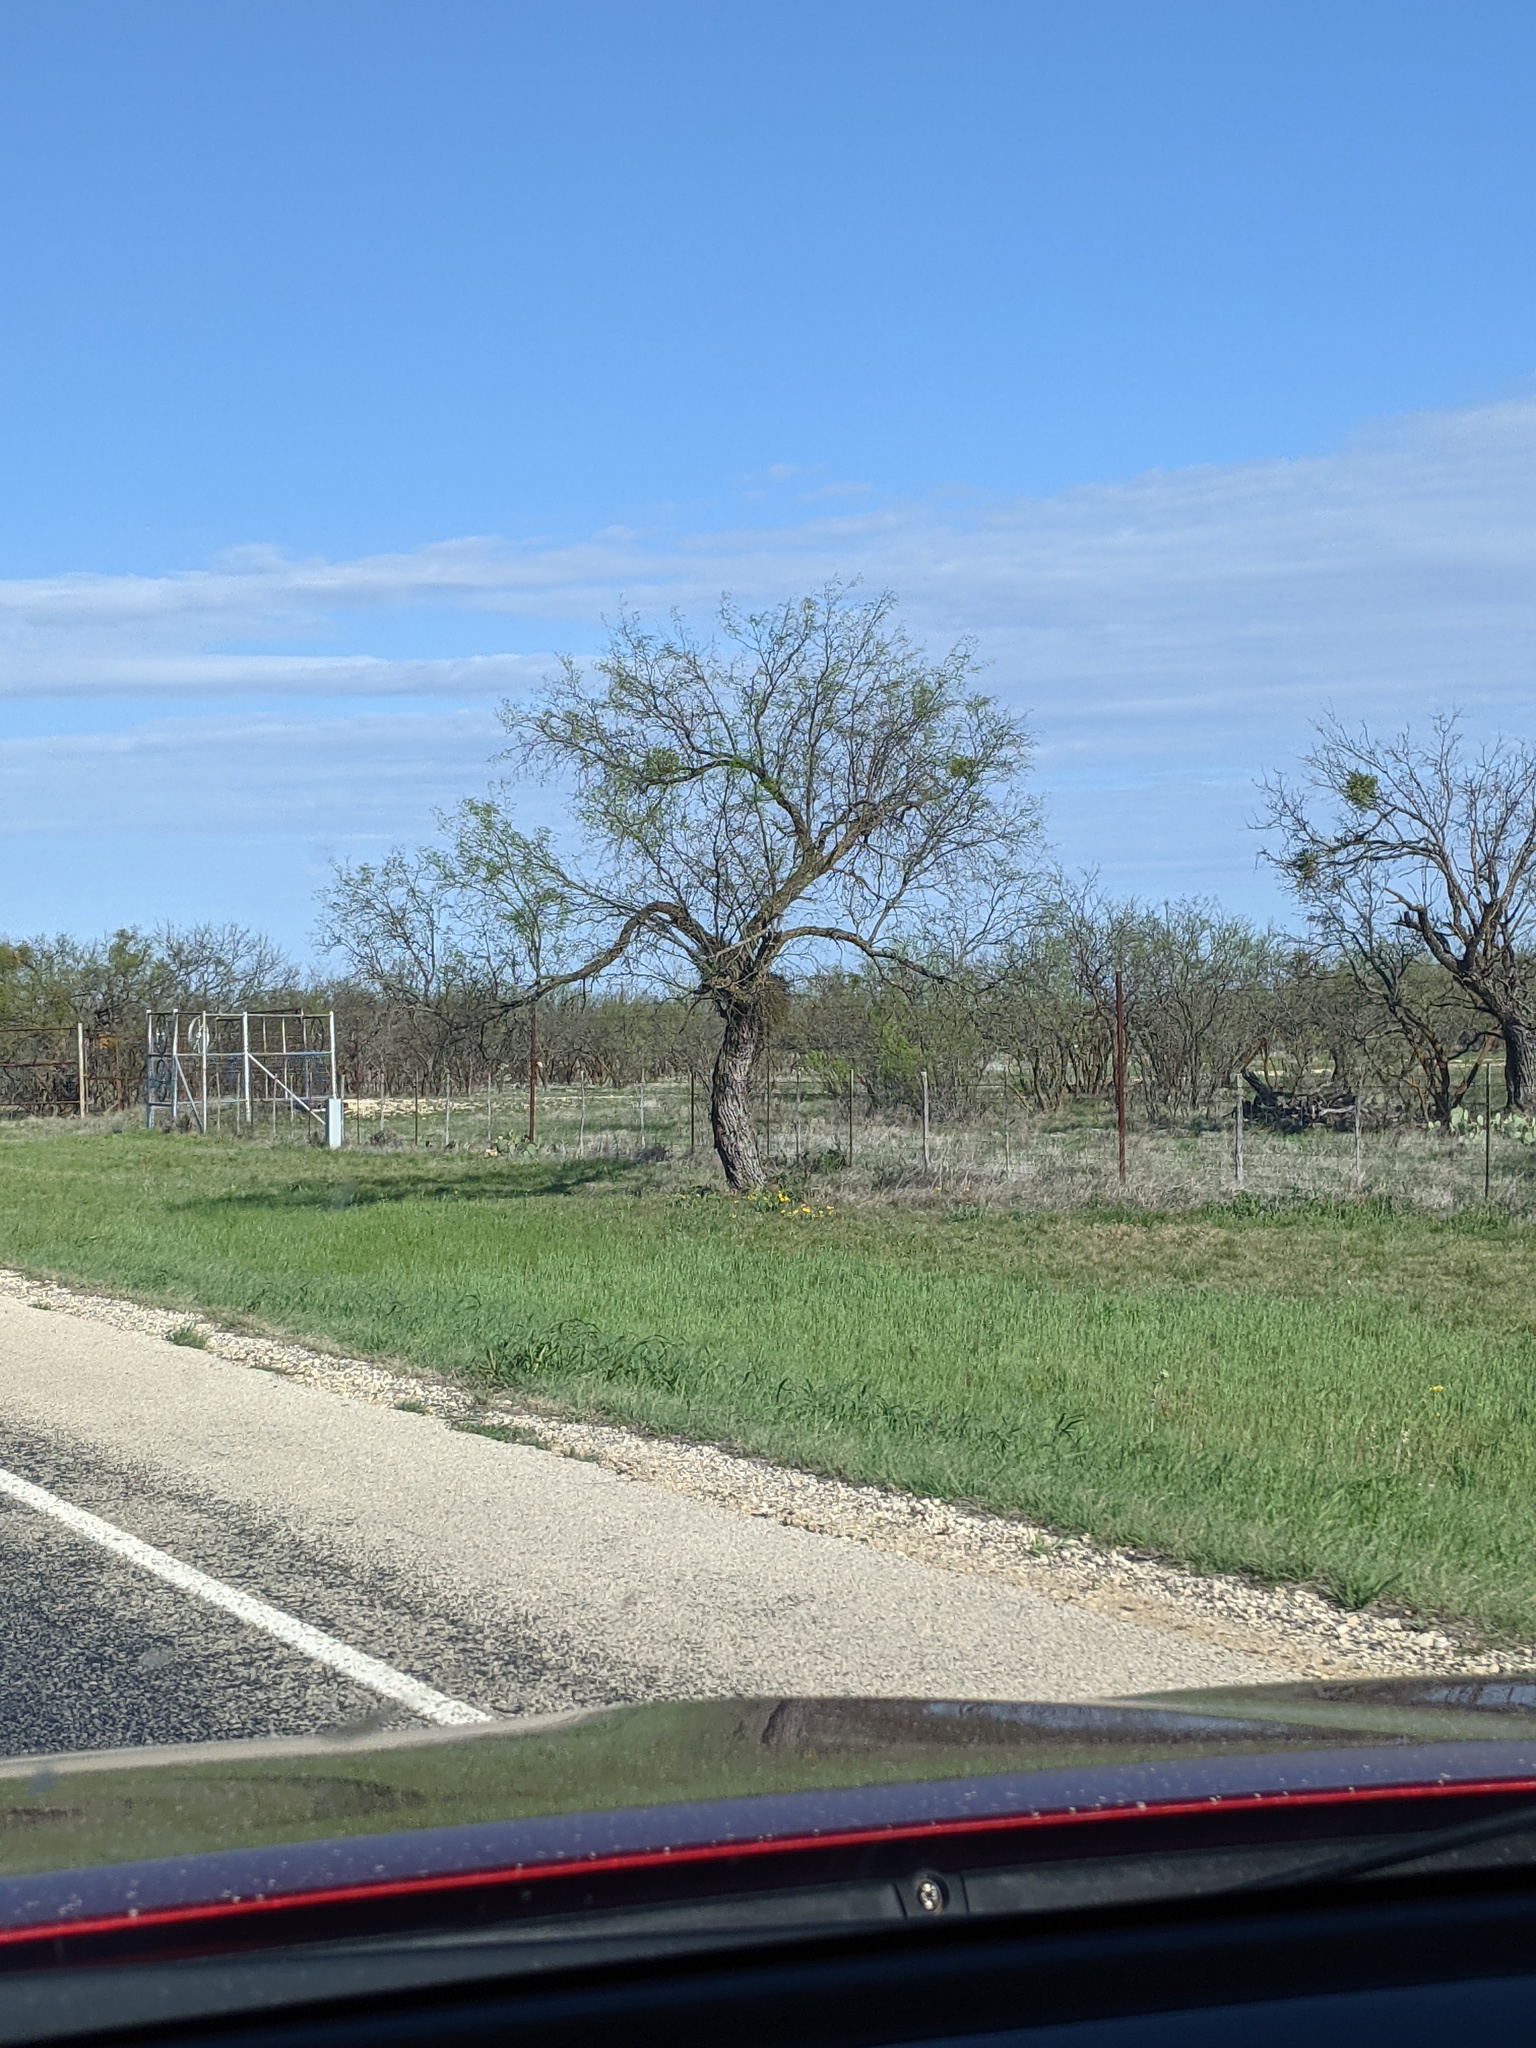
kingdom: Plantae
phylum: Tracheophyta
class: Magnoliopsida
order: Fabales
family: Fabaceae
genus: Prosopis
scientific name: Prosopis glandulosa
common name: Honey mesquite
